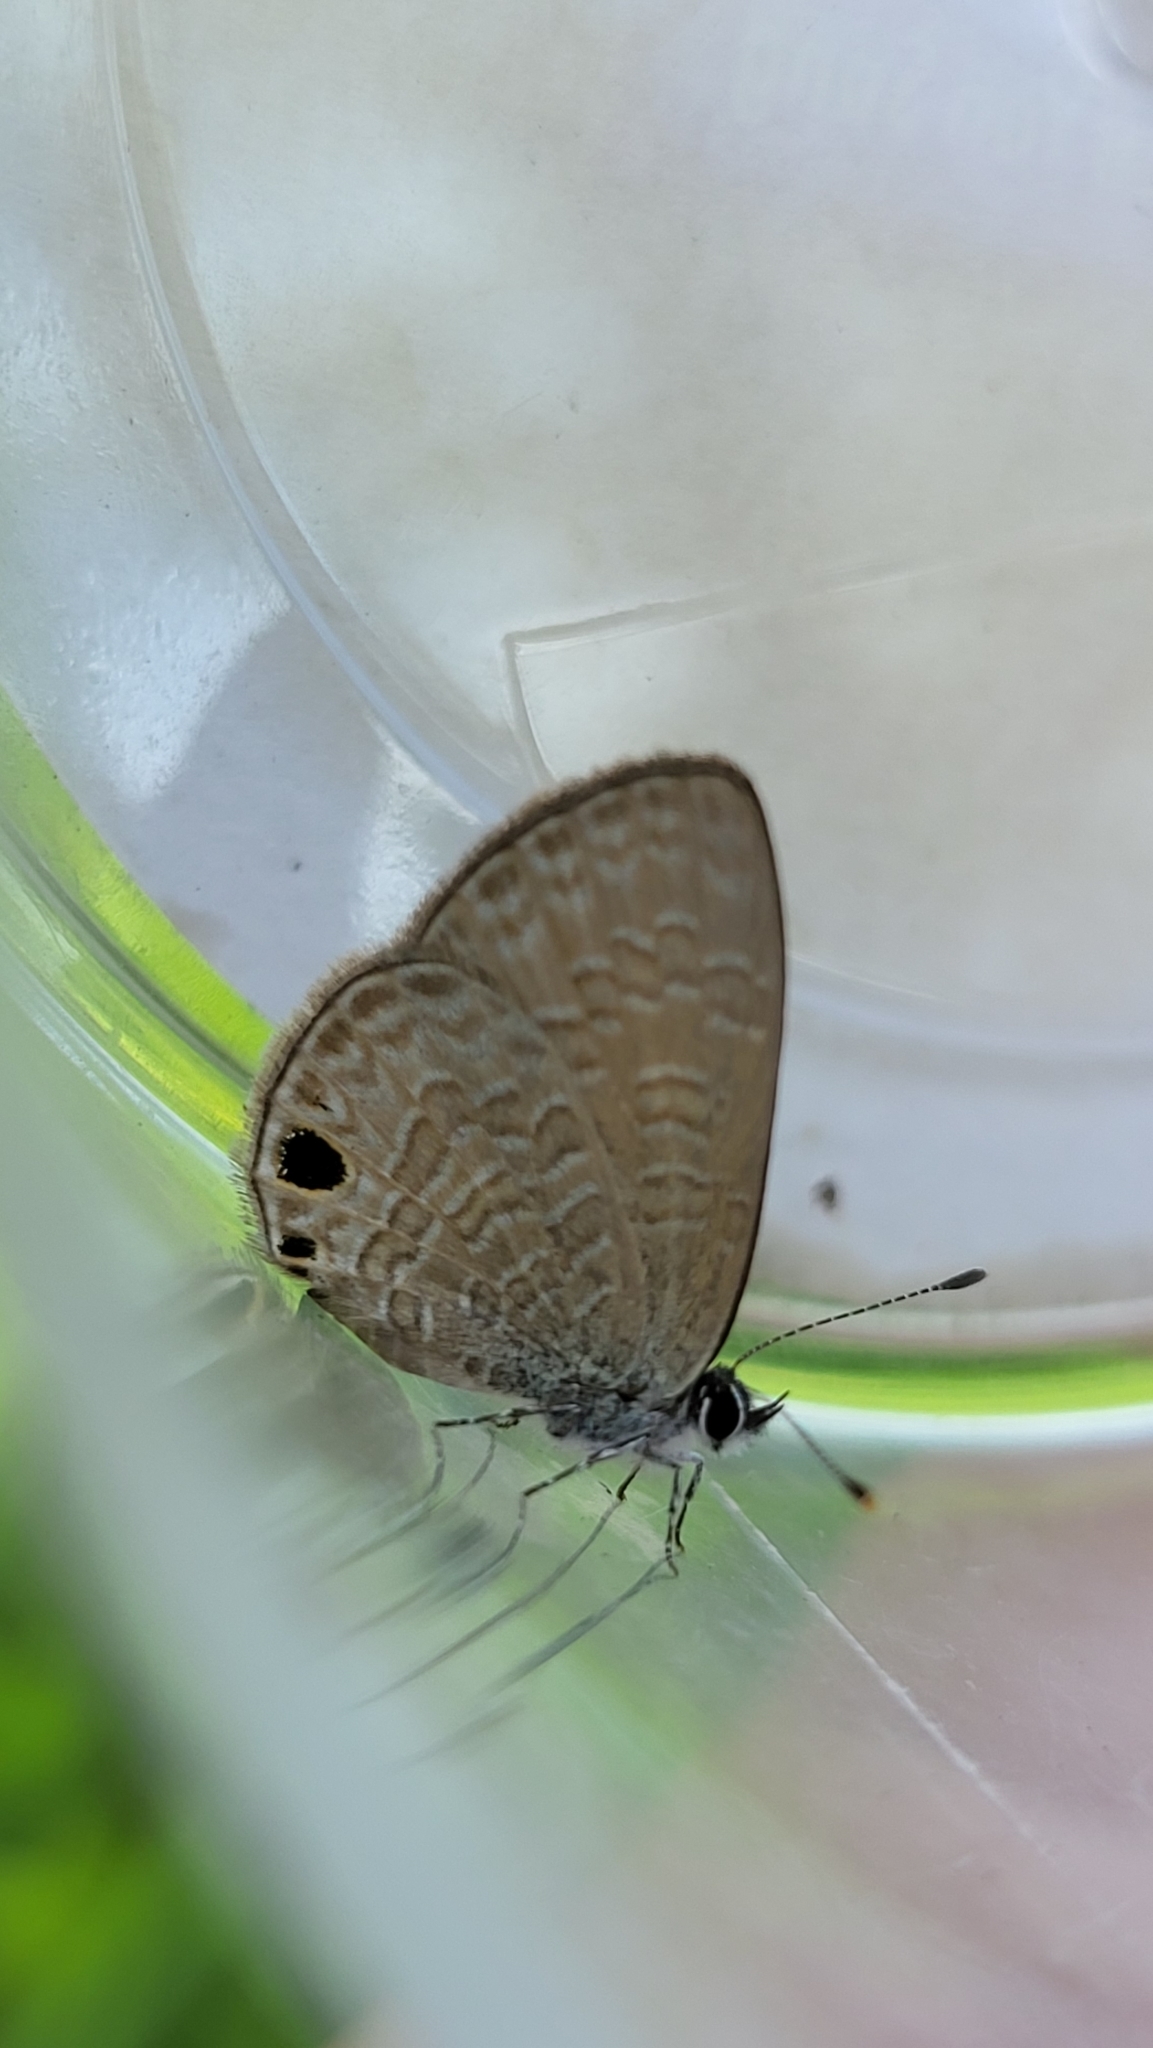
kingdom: Animalia
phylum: Arthropoda
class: Insecta
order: Lepidoptera
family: Lycaenidae
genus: Prosotas
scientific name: Prosotas dubiosa
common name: Tailless lineblue
